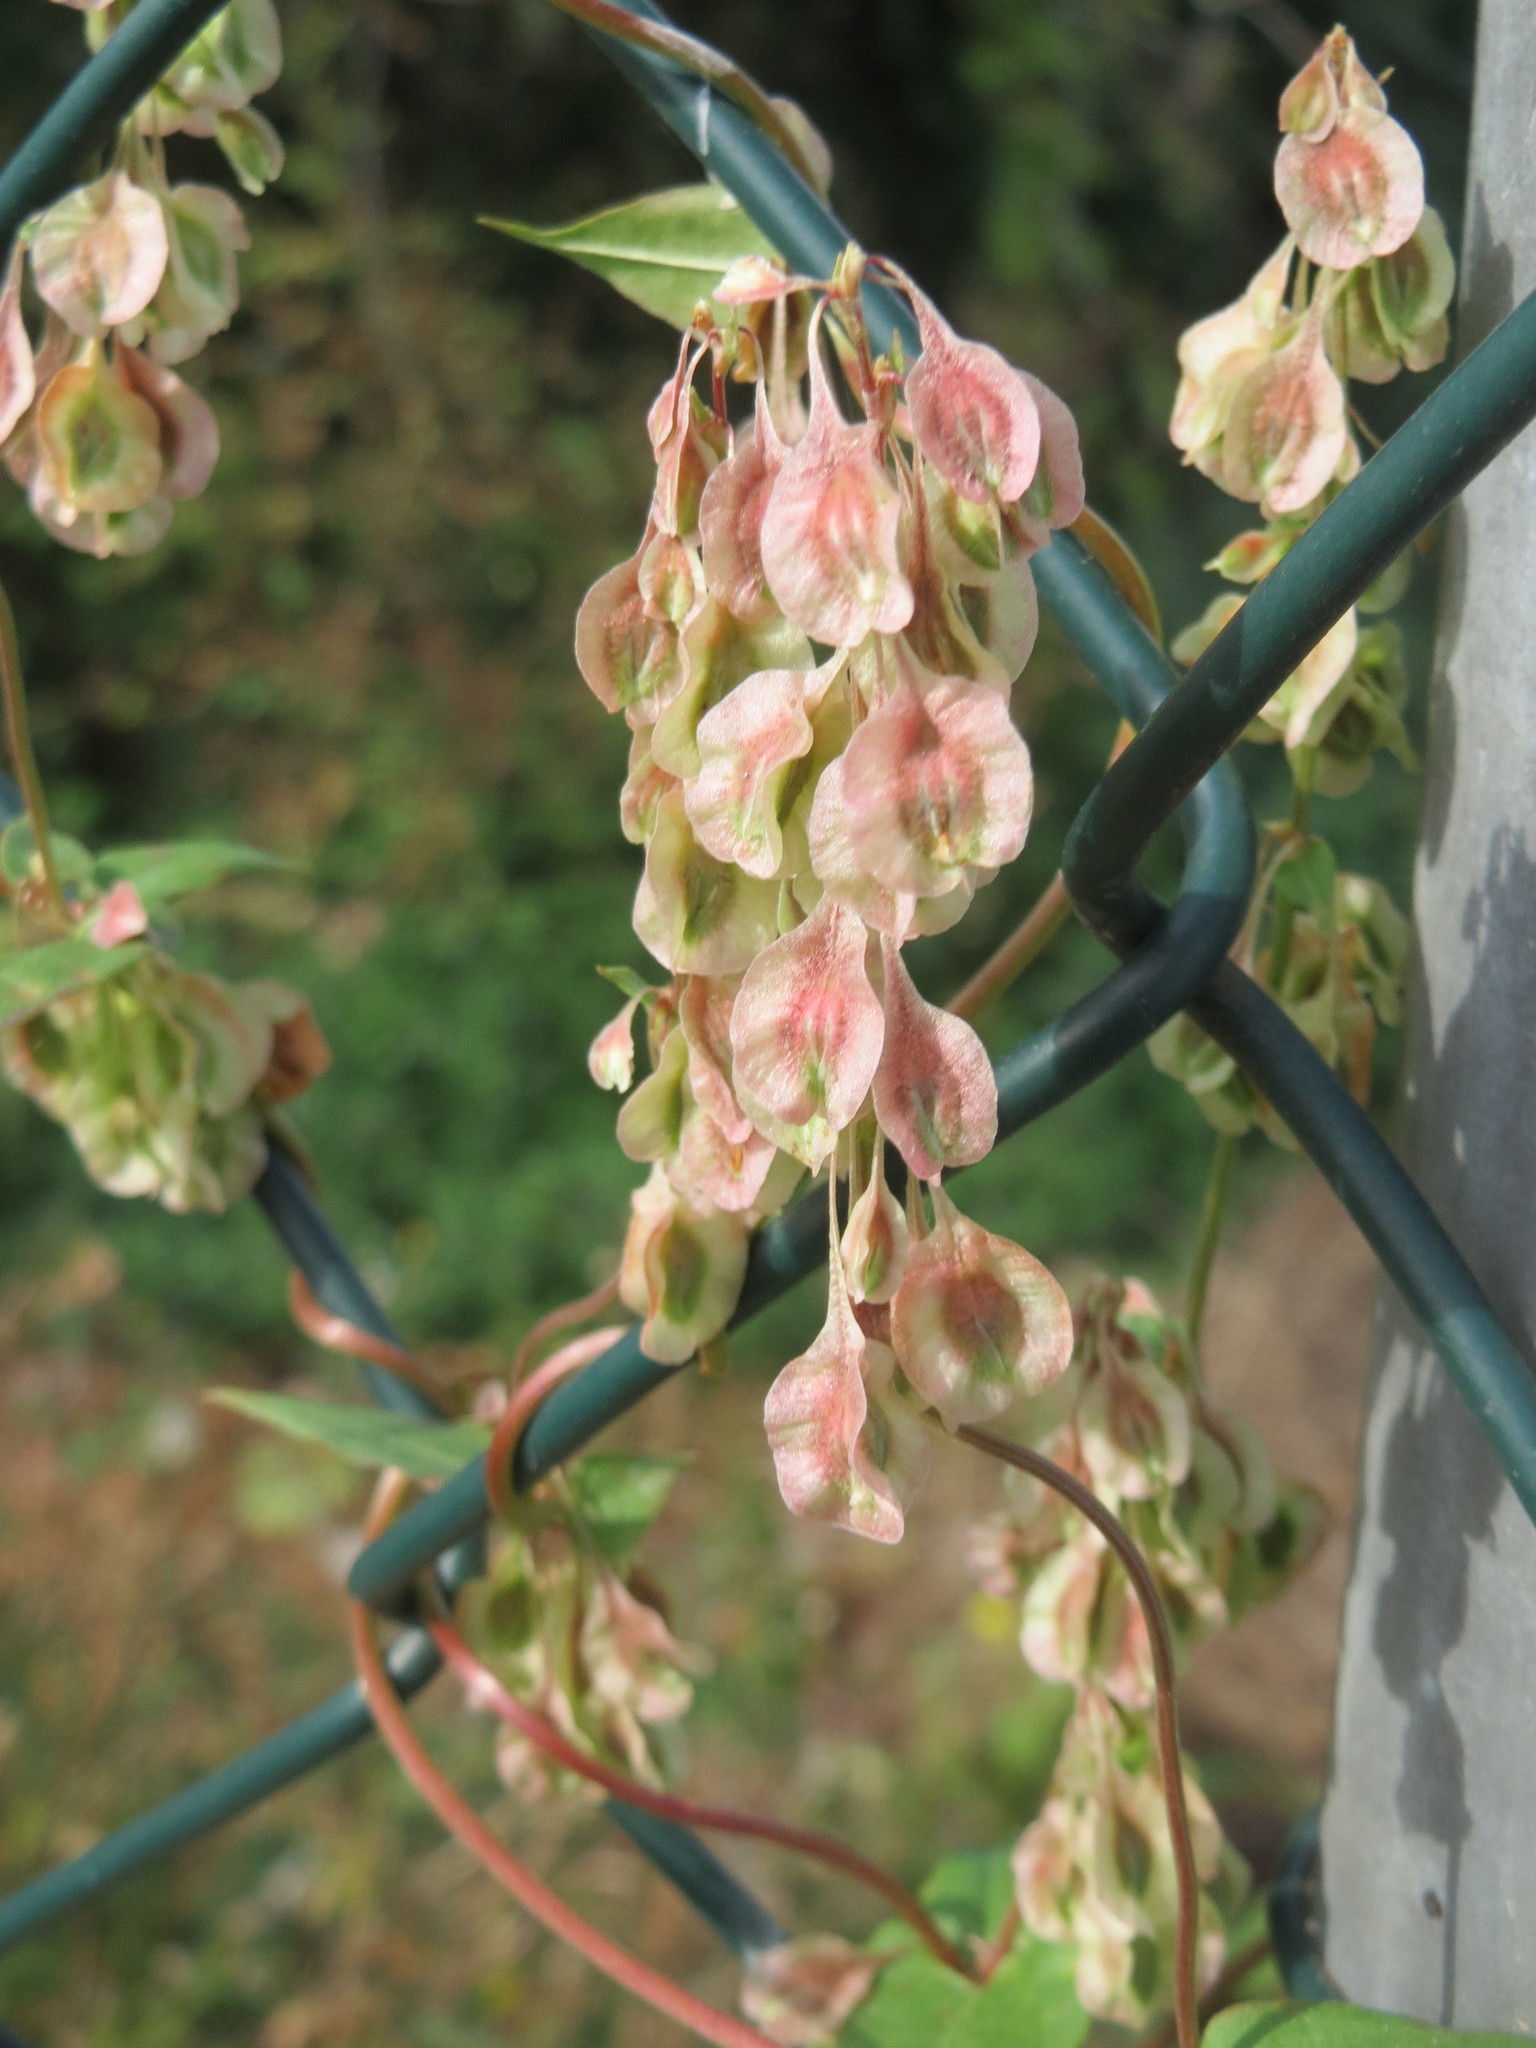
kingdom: Plantae
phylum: Tracheophyta
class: Magnoliopsida
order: Caryophyllales
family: Polygonaceae
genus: Fallopia
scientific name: Fallopia dumetorum
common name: Copse-bindweed
